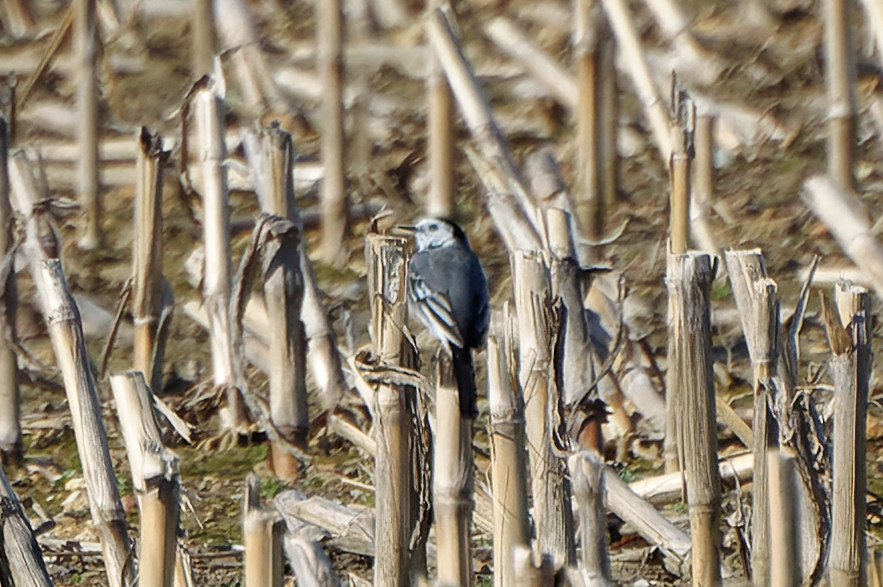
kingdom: Animalia
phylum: Chordata
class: Aves
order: Passeriformes
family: Motacillidae
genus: Motacilla
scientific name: Motacilla alba
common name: White wagtail
